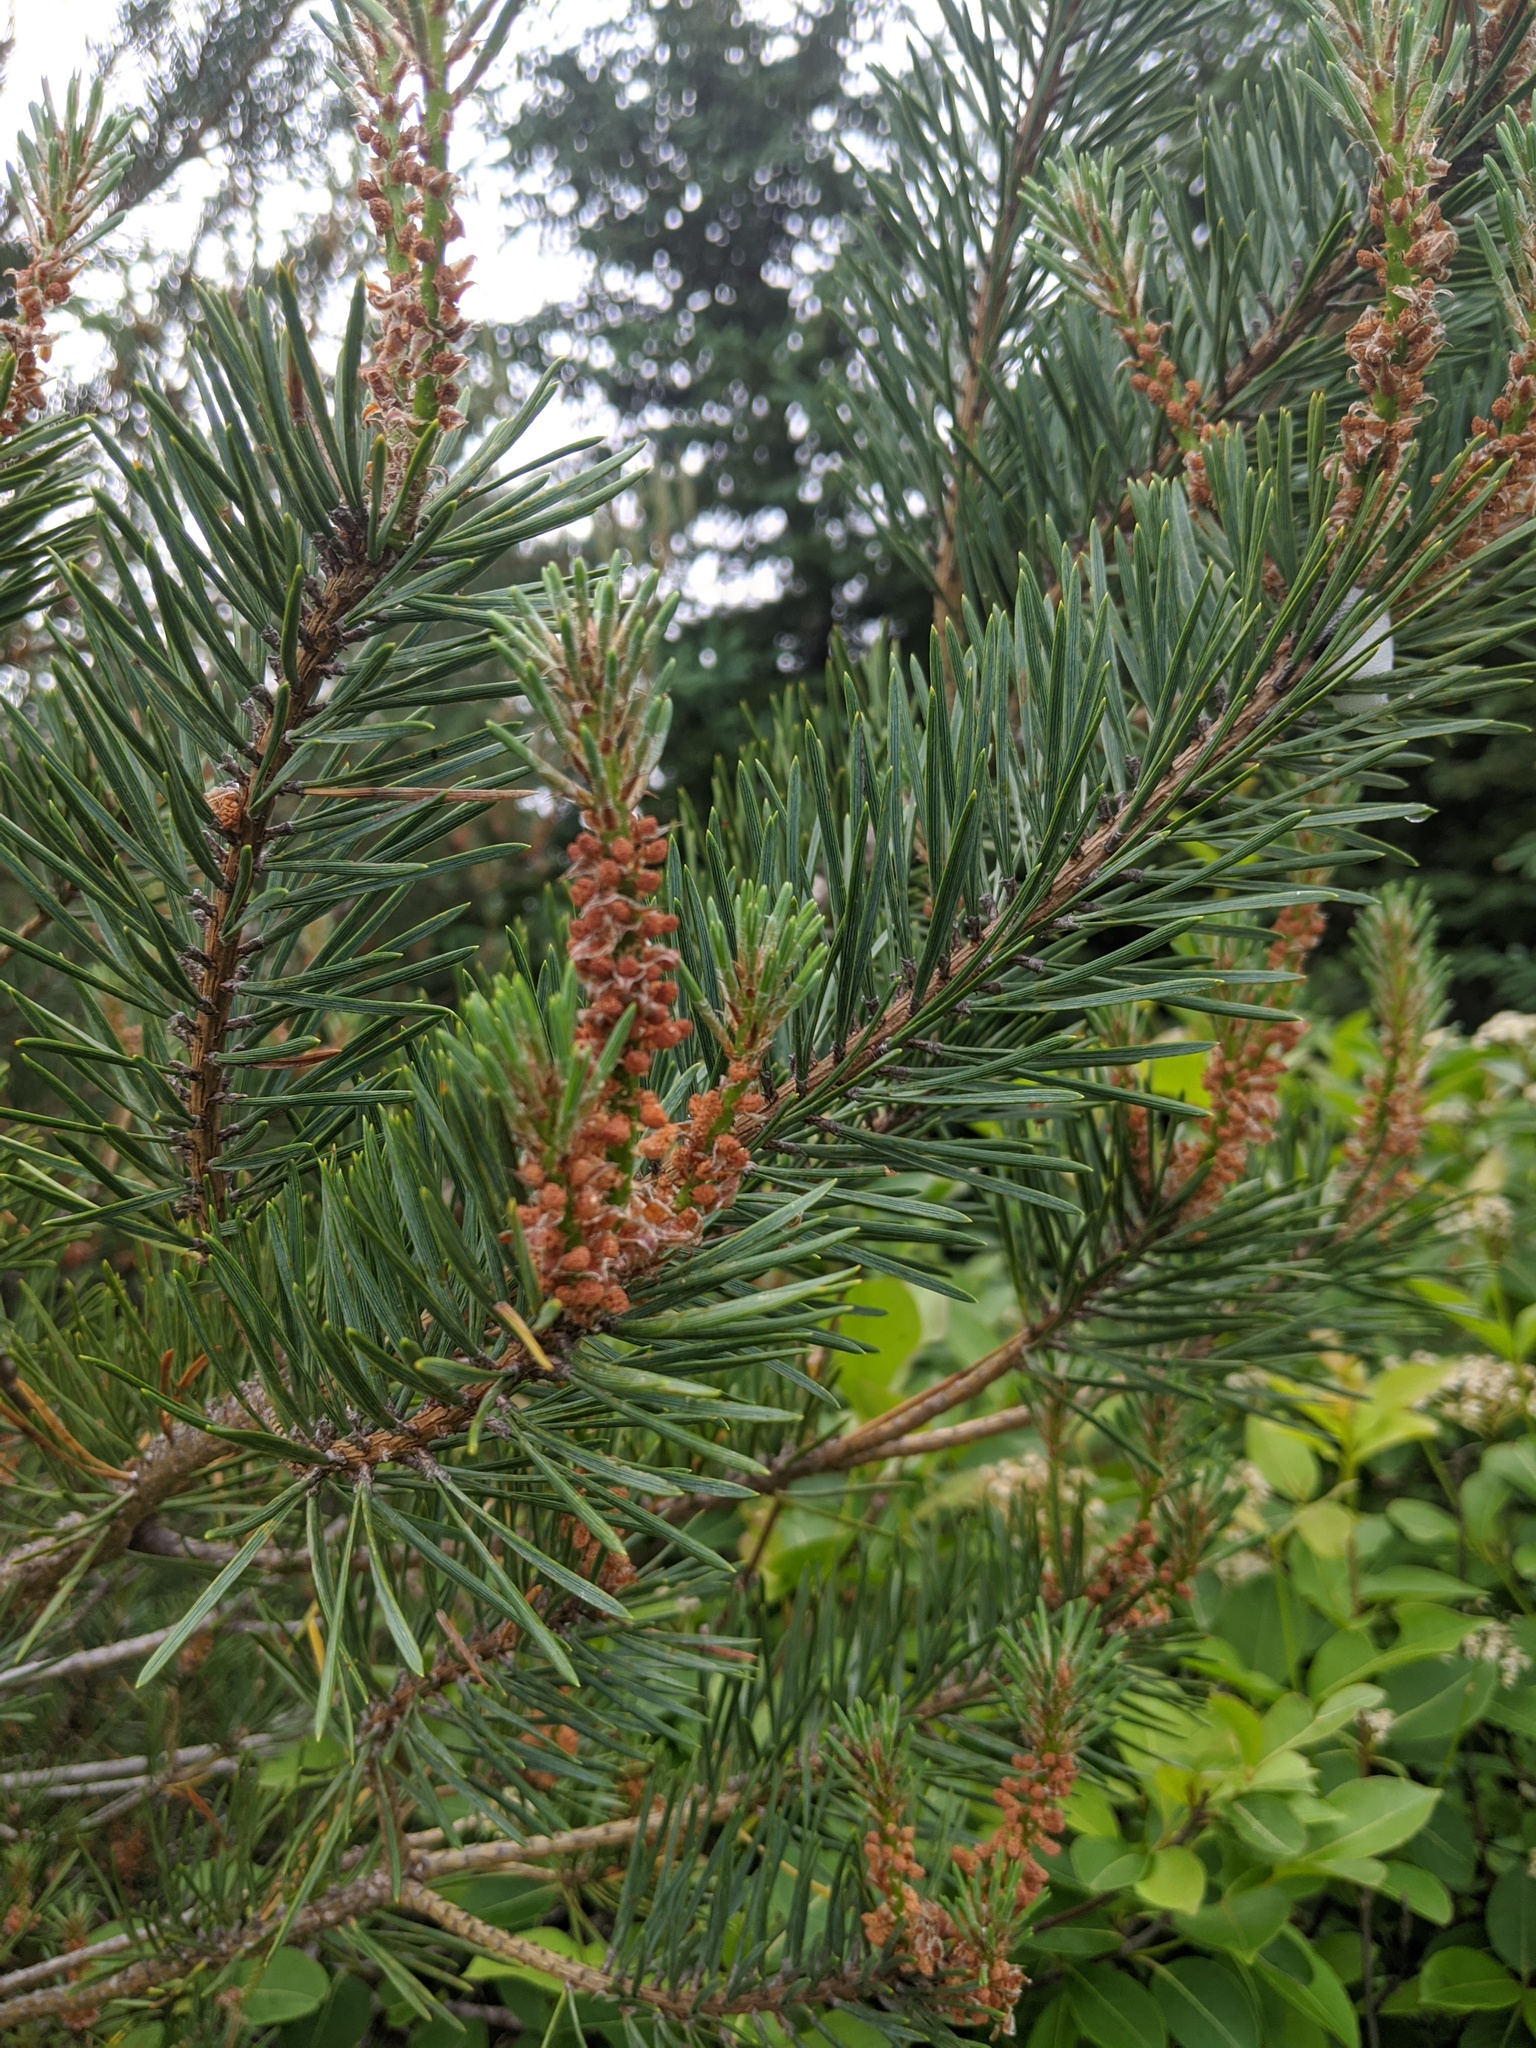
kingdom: Plantae
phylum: Tracheophyta
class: Pinopsida
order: Pinales
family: Pinaceae
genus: Pinus
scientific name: Pinus sylvestris
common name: Scots pine
